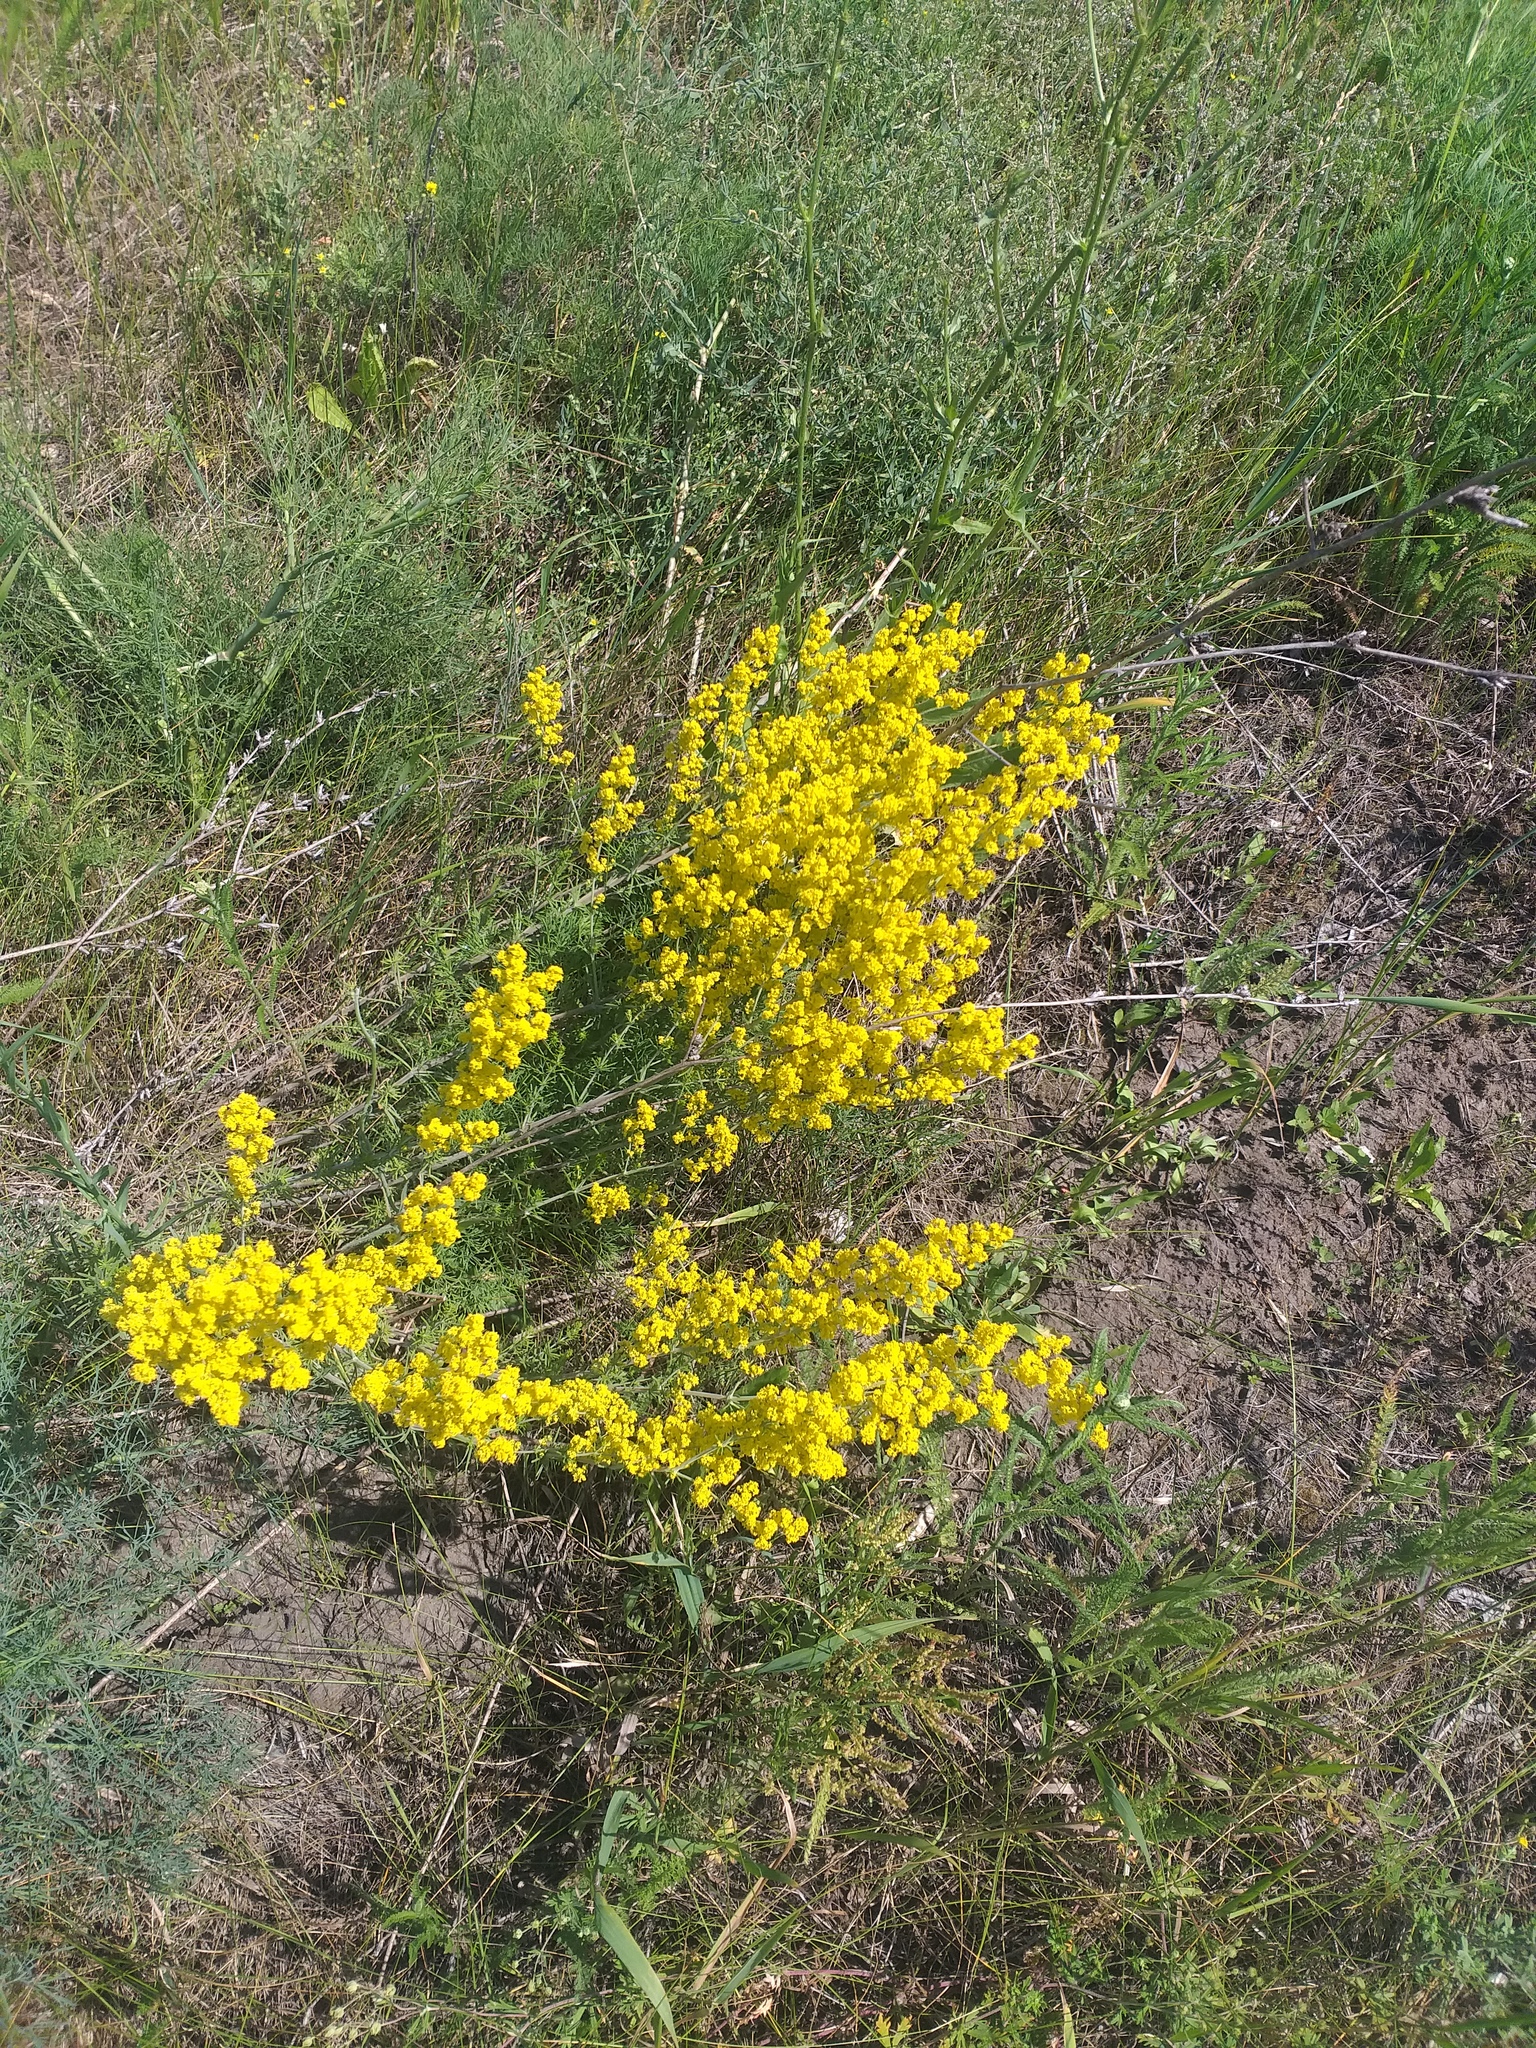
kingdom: Plantae
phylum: Tracheophyta
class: Magnoliopsida
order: Gentianales
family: Rubiaceae
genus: Galium
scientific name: Galium verum
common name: Lady's bedstraw
